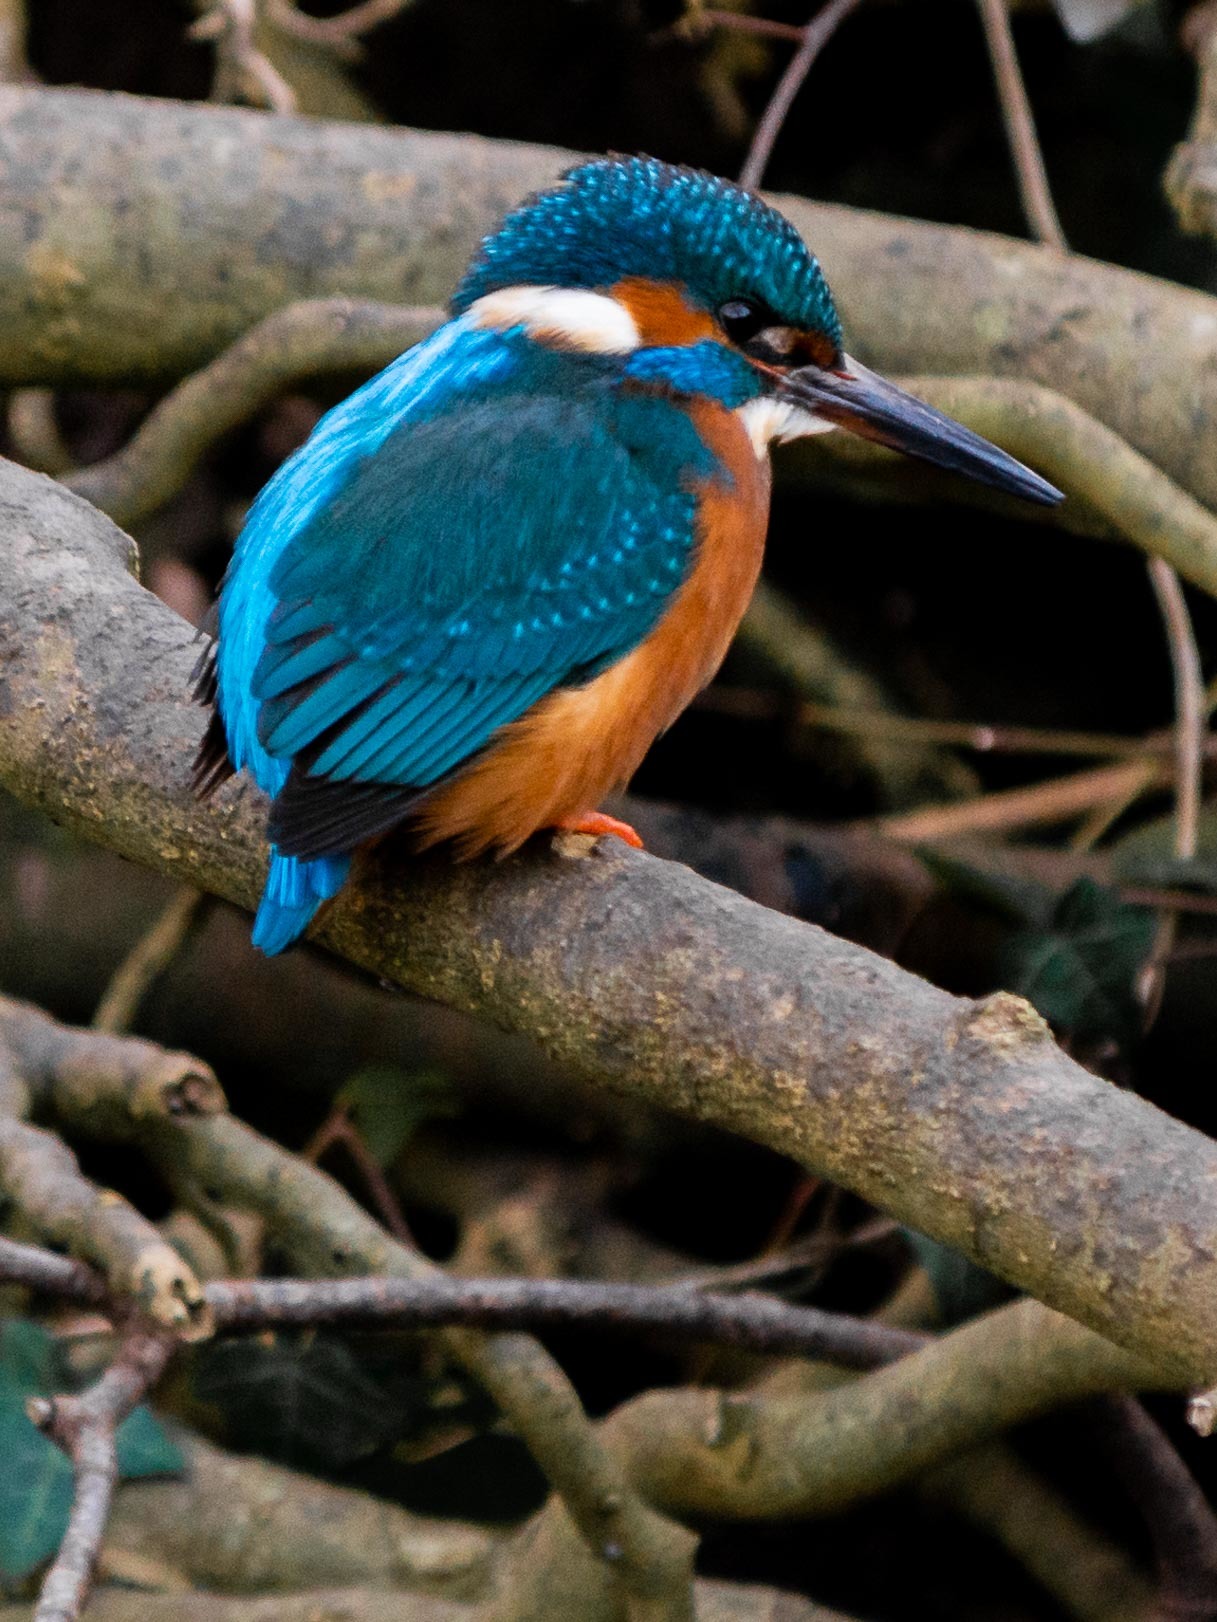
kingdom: Animalia
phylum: Chordata
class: Aves
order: Coraciiformes
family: Alcedinidae
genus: Alcedo
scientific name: Alcedo atthis
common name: Common kingfisher
